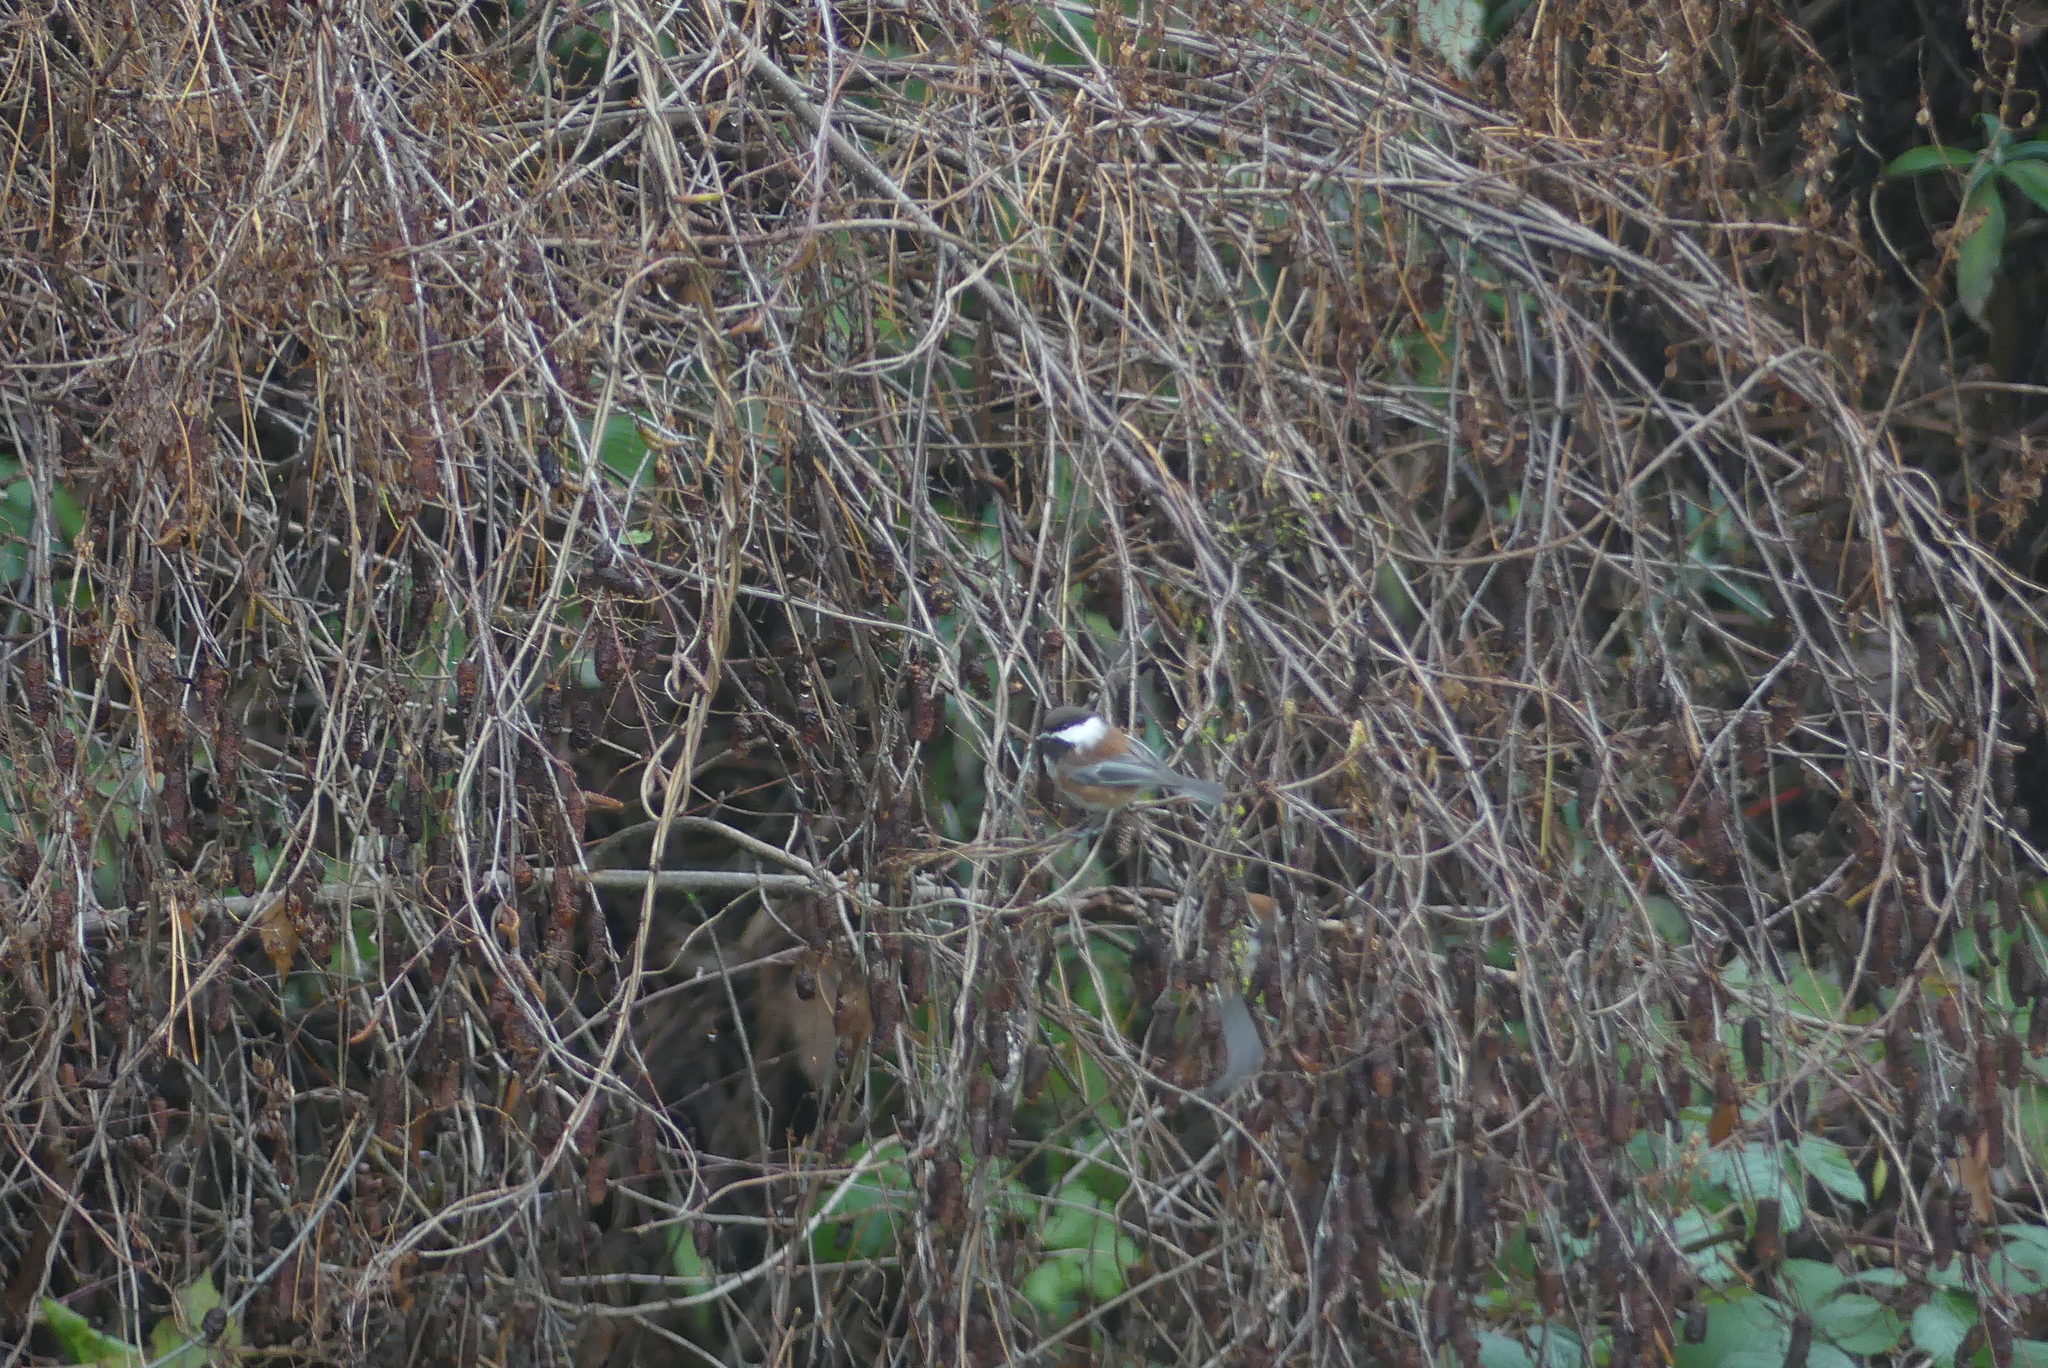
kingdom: Animalia
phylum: Chordata
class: Aves
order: Passeriformes
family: Paridae
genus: Poecile
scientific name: Poecile rufescens
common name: Chestnut-backed chickadee
